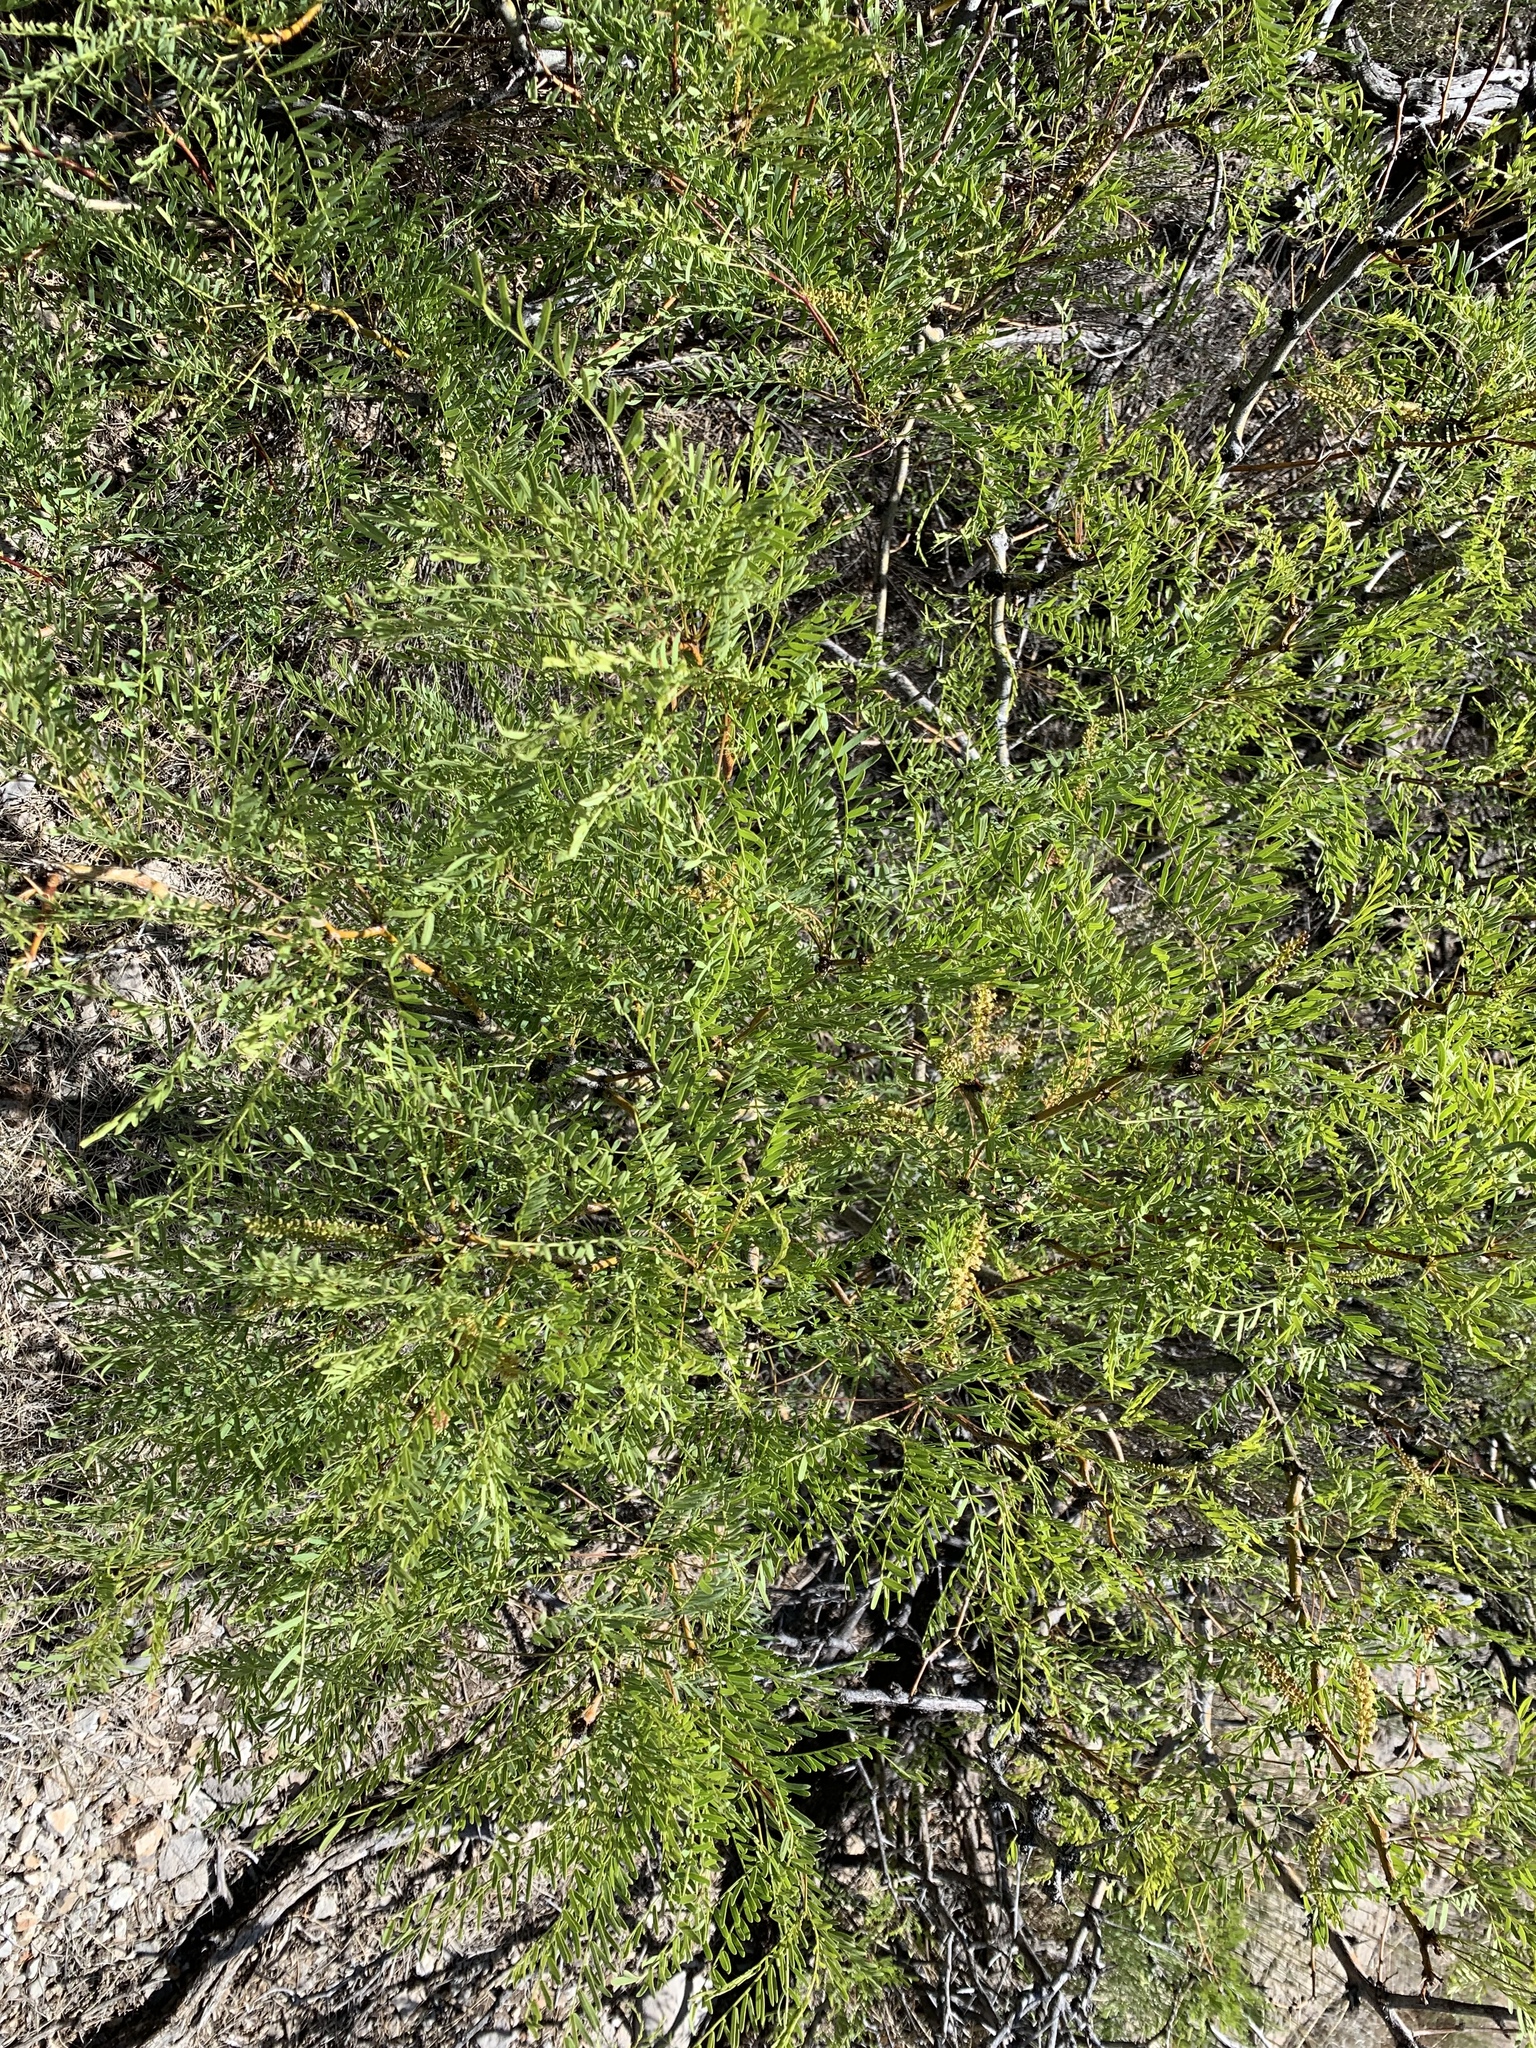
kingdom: Plantae
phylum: Tracheophyta
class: Magnoliopsida
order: Fabales
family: Fabaceae
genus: Prosopis
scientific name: Prosopis glandulosa
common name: Honey mesquite
